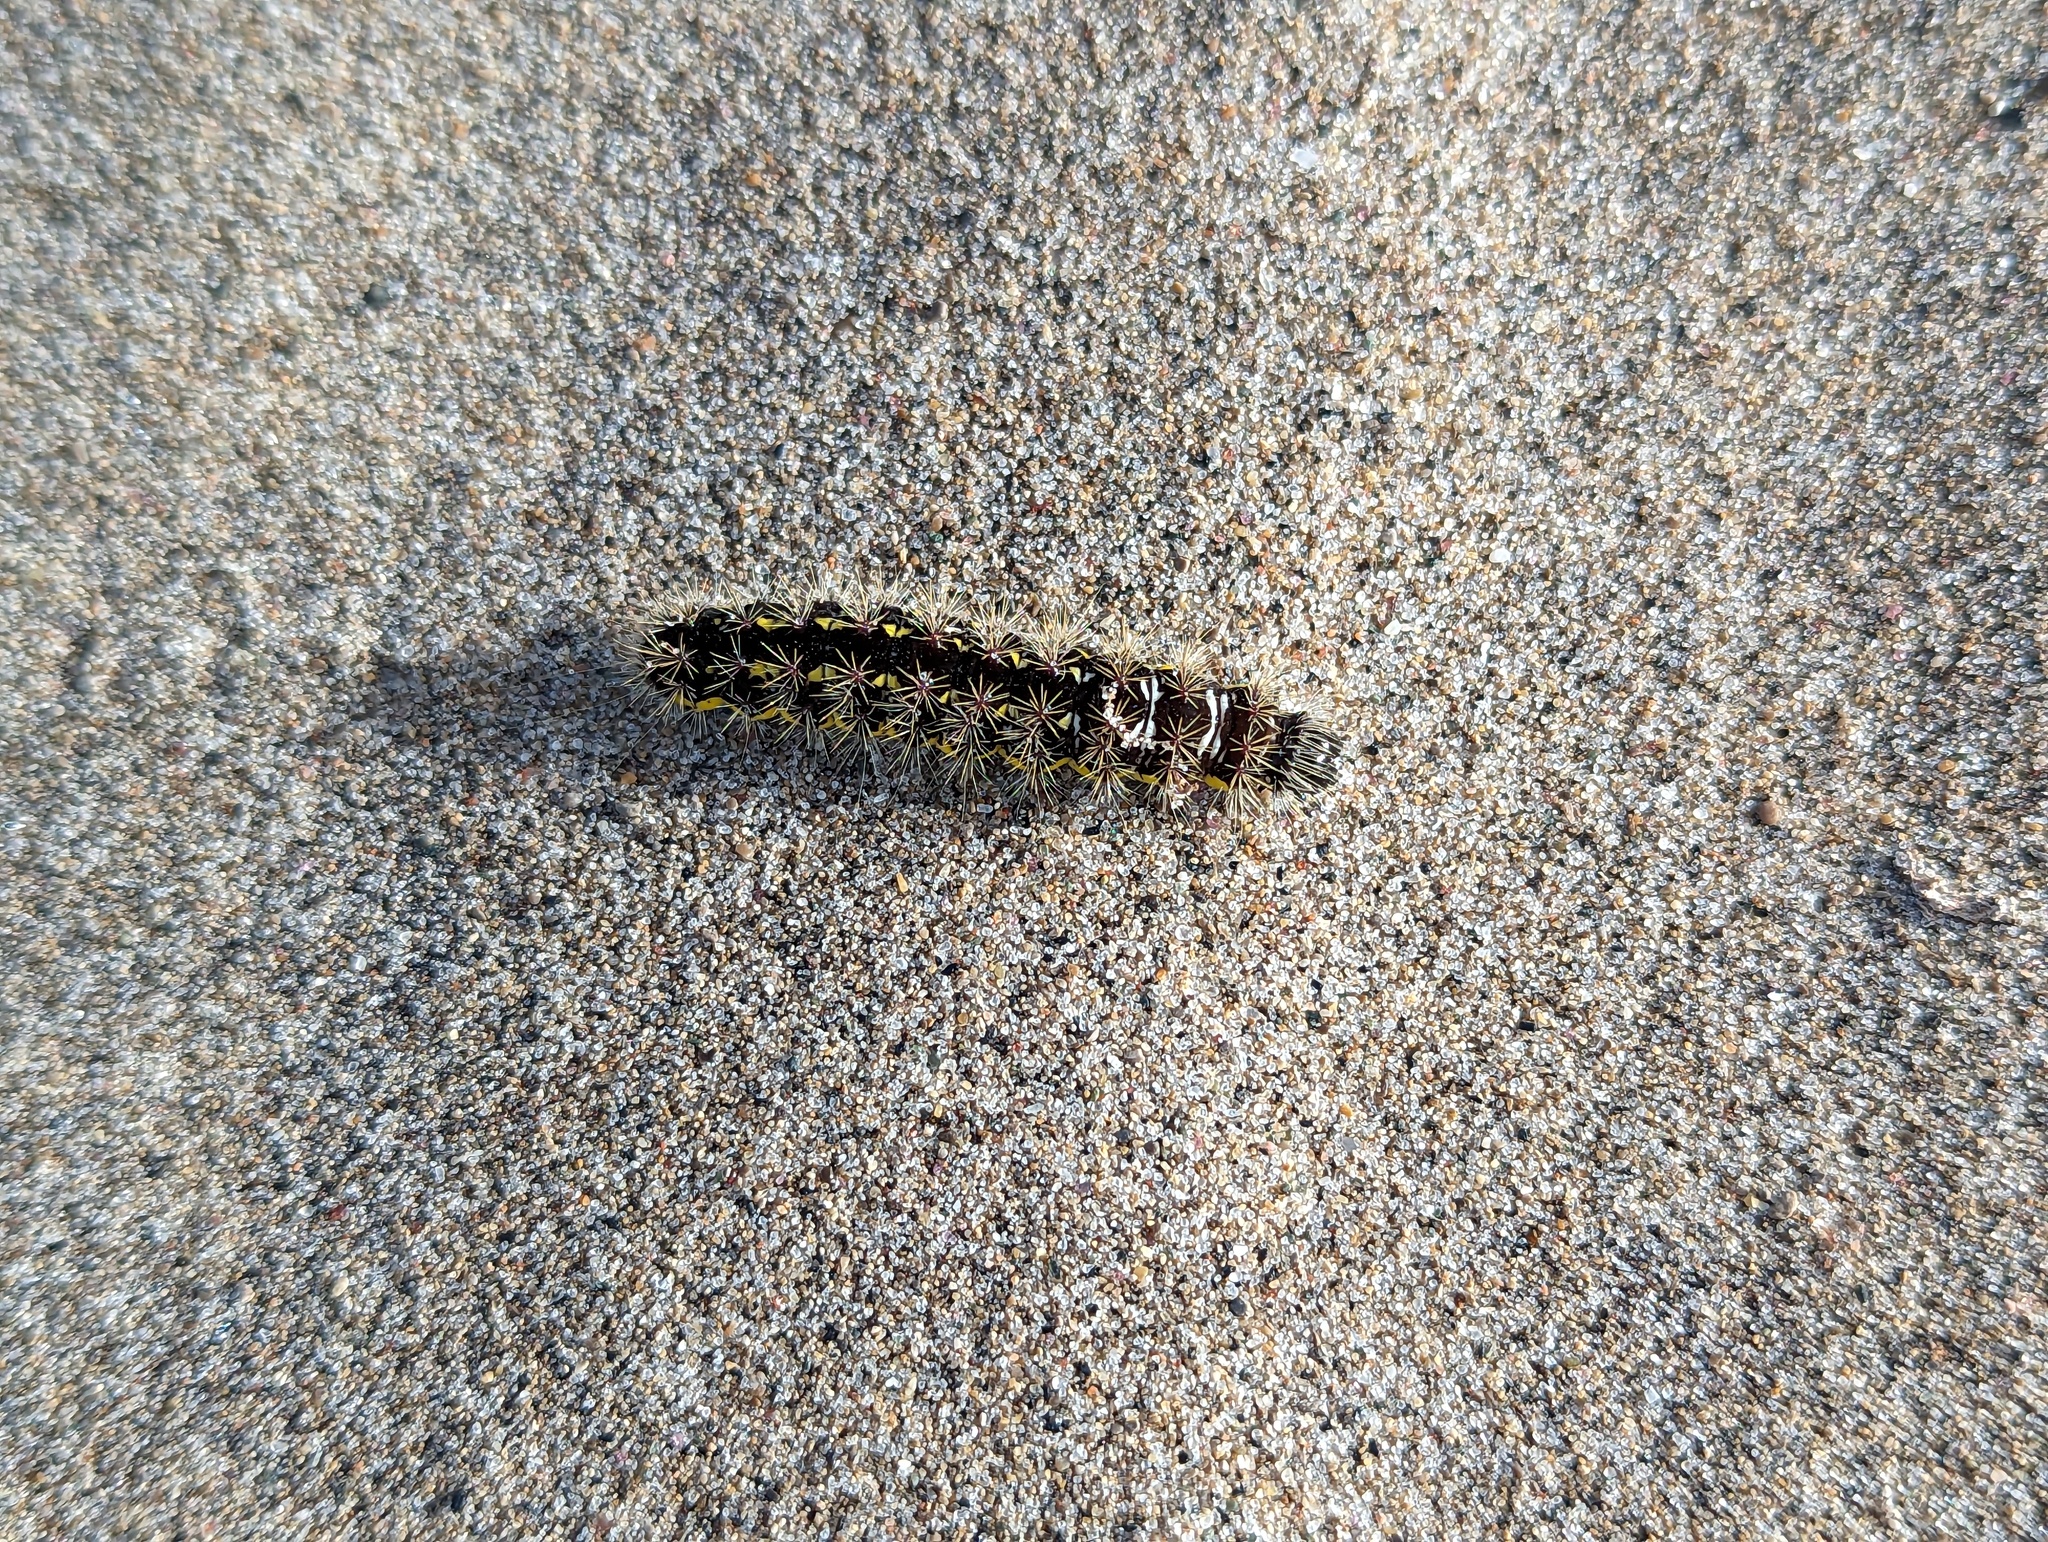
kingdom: Animalia
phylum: Arthropoda
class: Insecta
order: Lepidoptera
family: Noctuidae
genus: Acronicta
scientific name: Acronicta oblinita
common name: Smeared dagger
